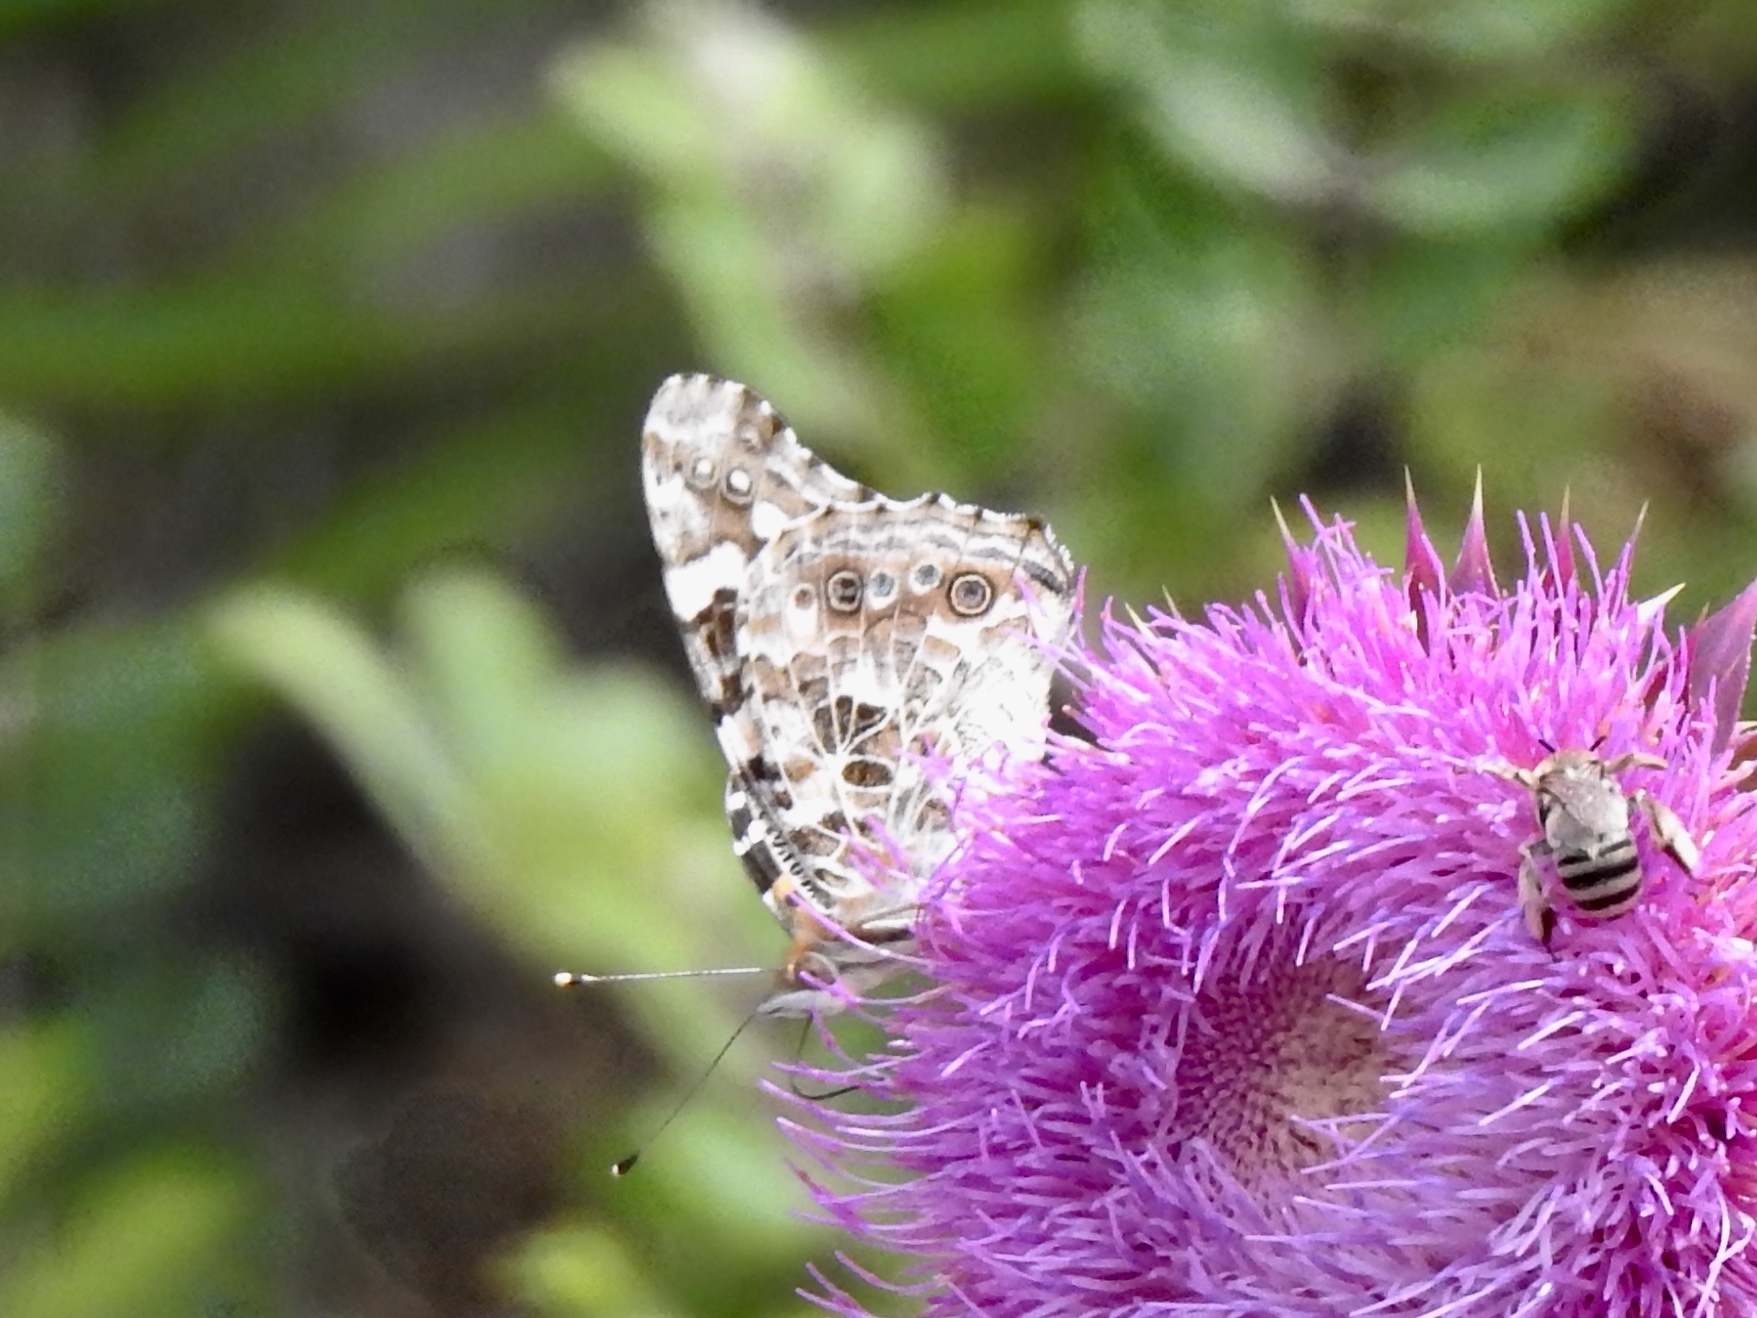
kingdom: Animalia
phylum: Arthropoda
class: Insecta
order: Lepidoptera
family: Nymphalidae
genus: Vanessa
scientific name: Vanessa cardui
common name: Painted lady
